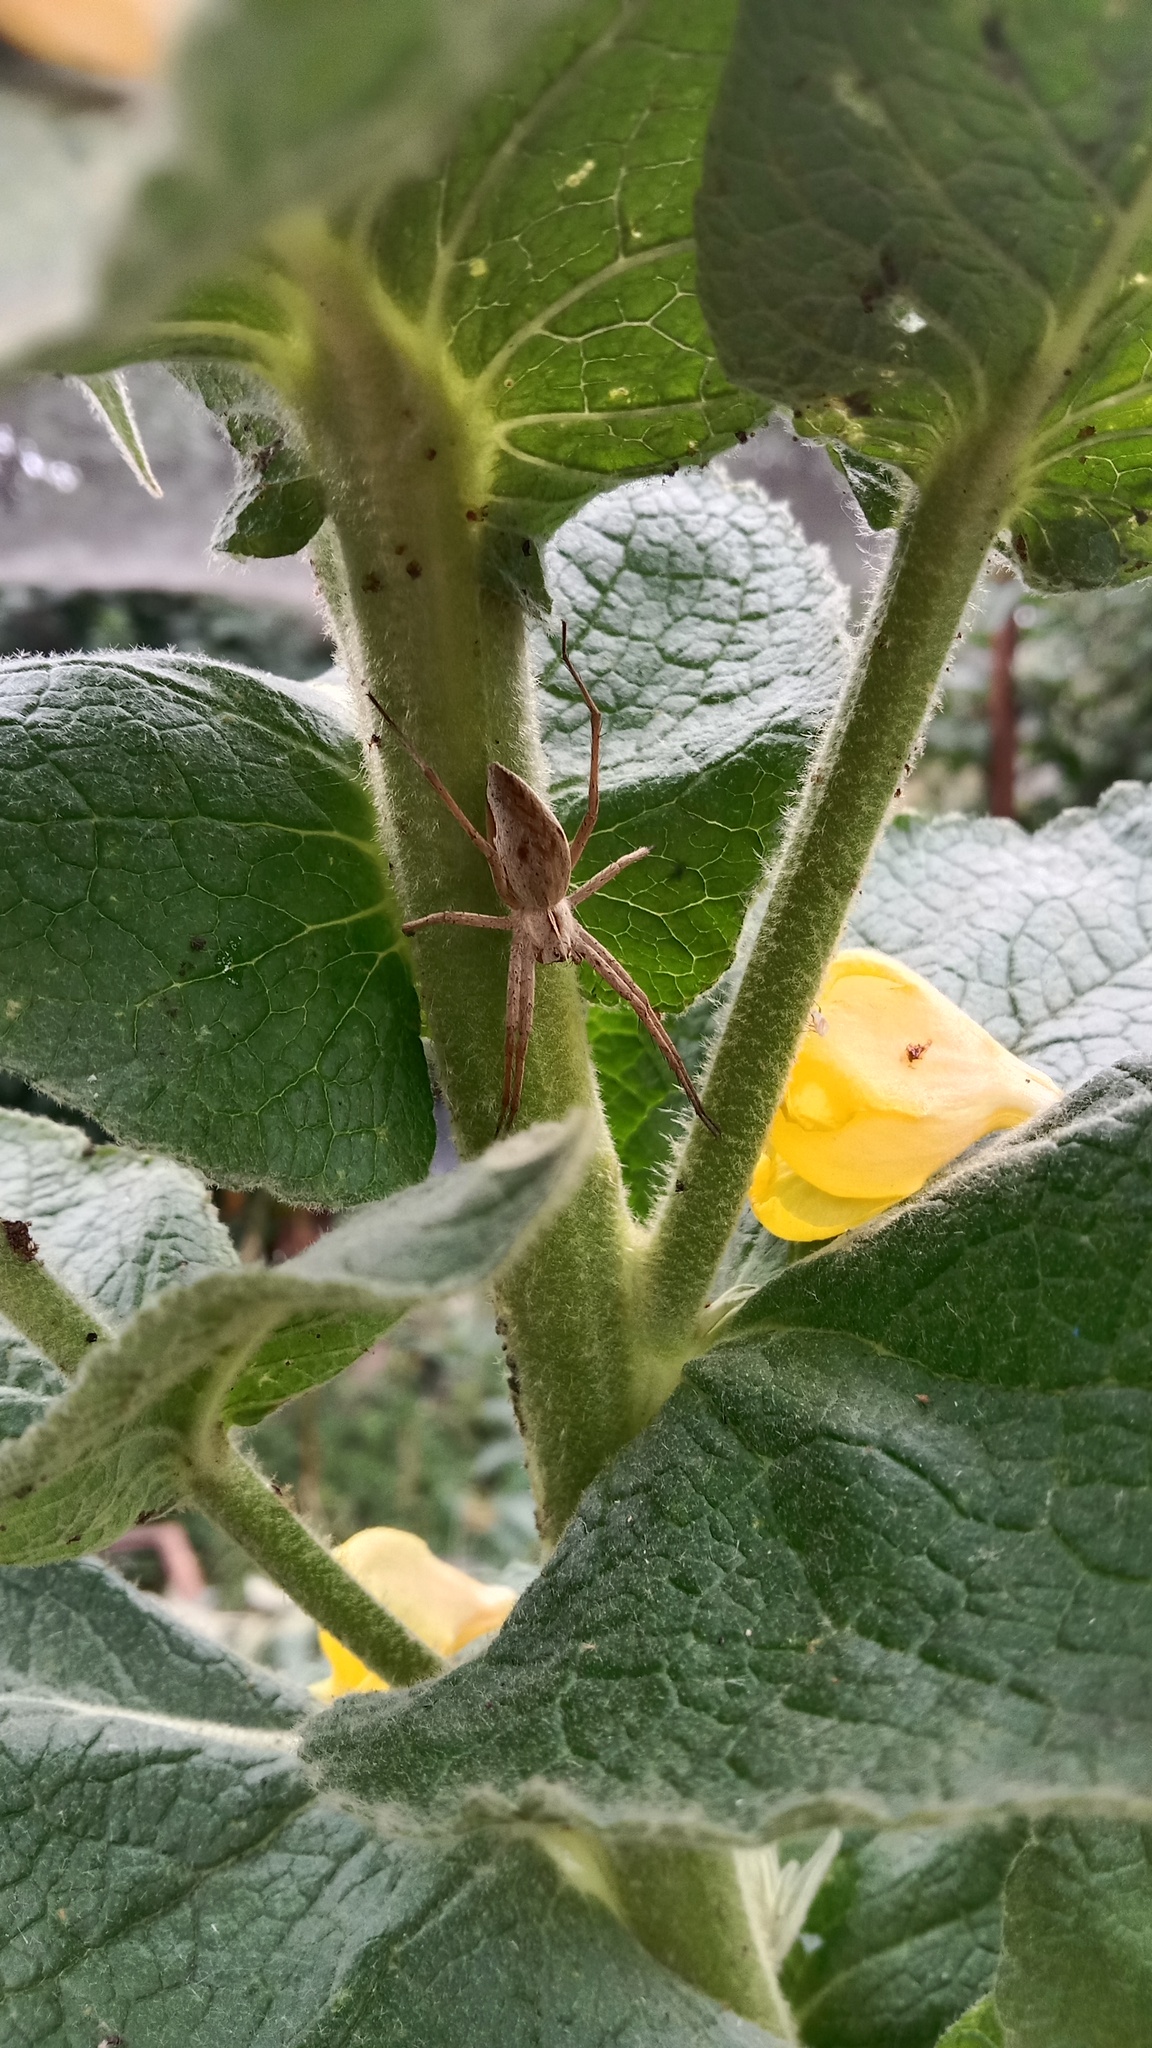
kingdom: Animalia
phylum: Arthropoda
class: Arachnida
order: Araneae
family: Pisauridae
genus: Pisaura
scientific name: Pisaura
